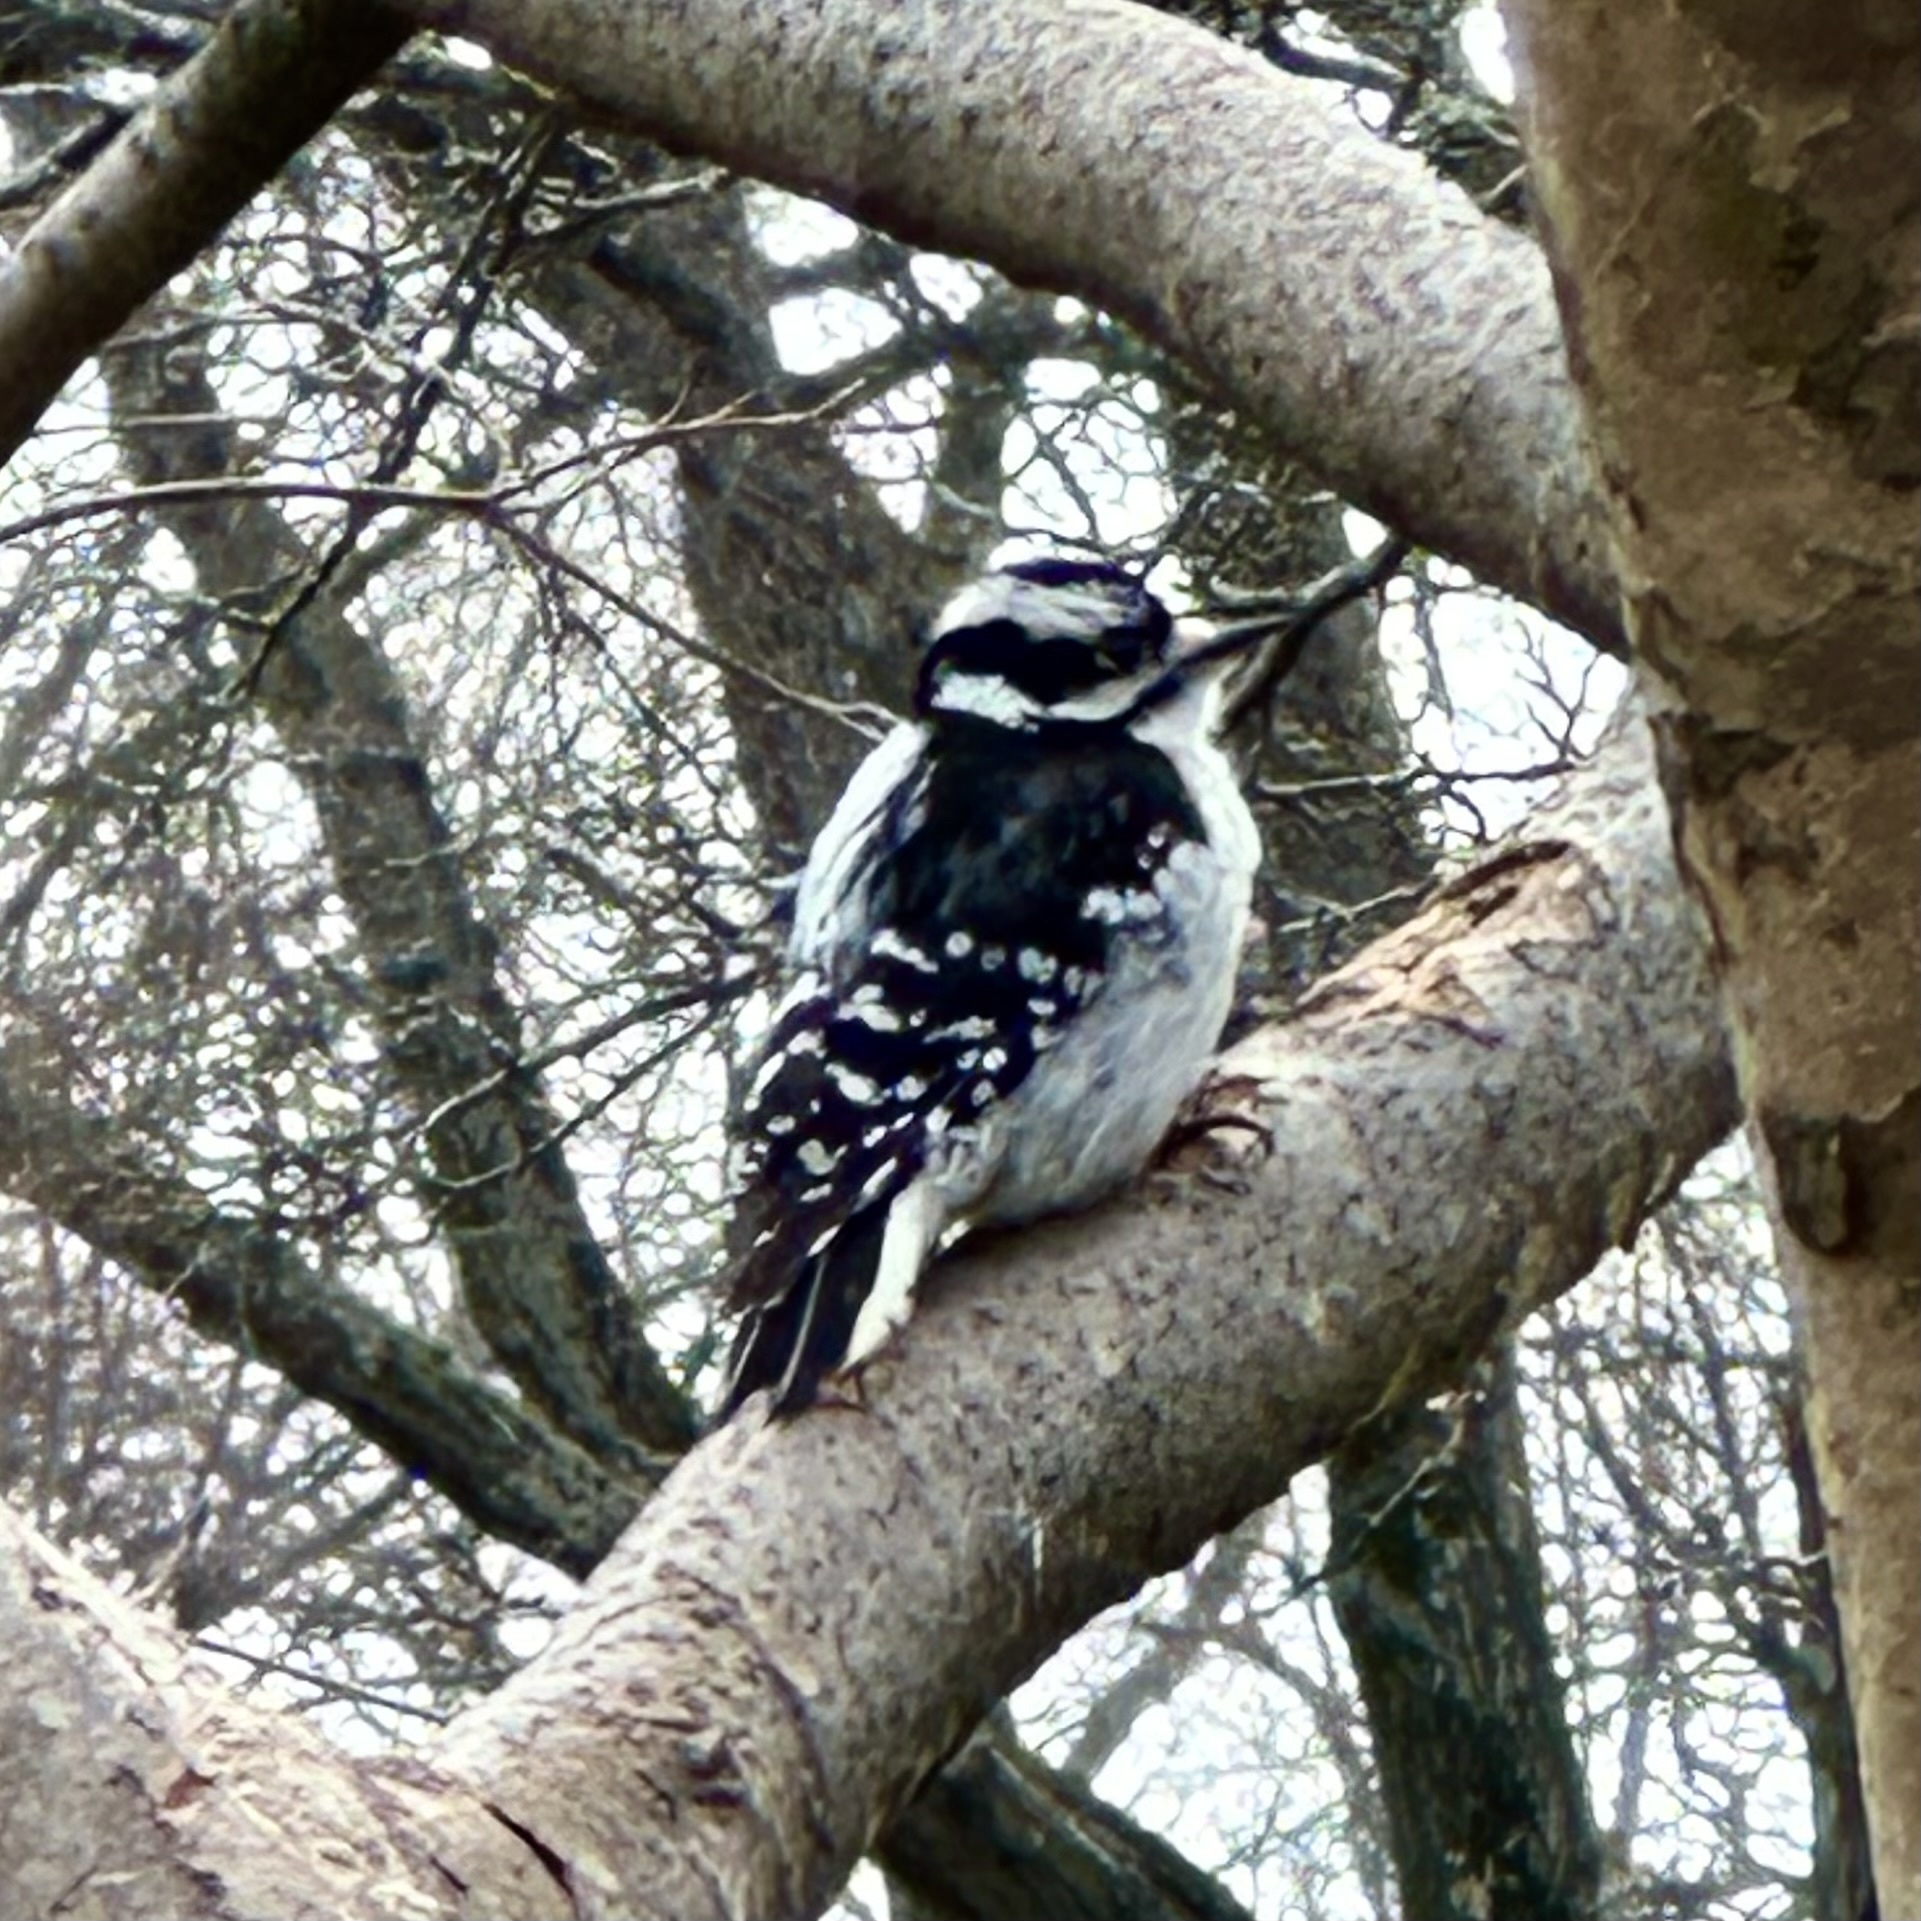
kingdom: Animalia
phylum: Chordata
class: Aves
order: Piciformes
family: Picidae
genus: Dryobates
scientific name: Dryobates pubescens
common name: Downy woodpecker
